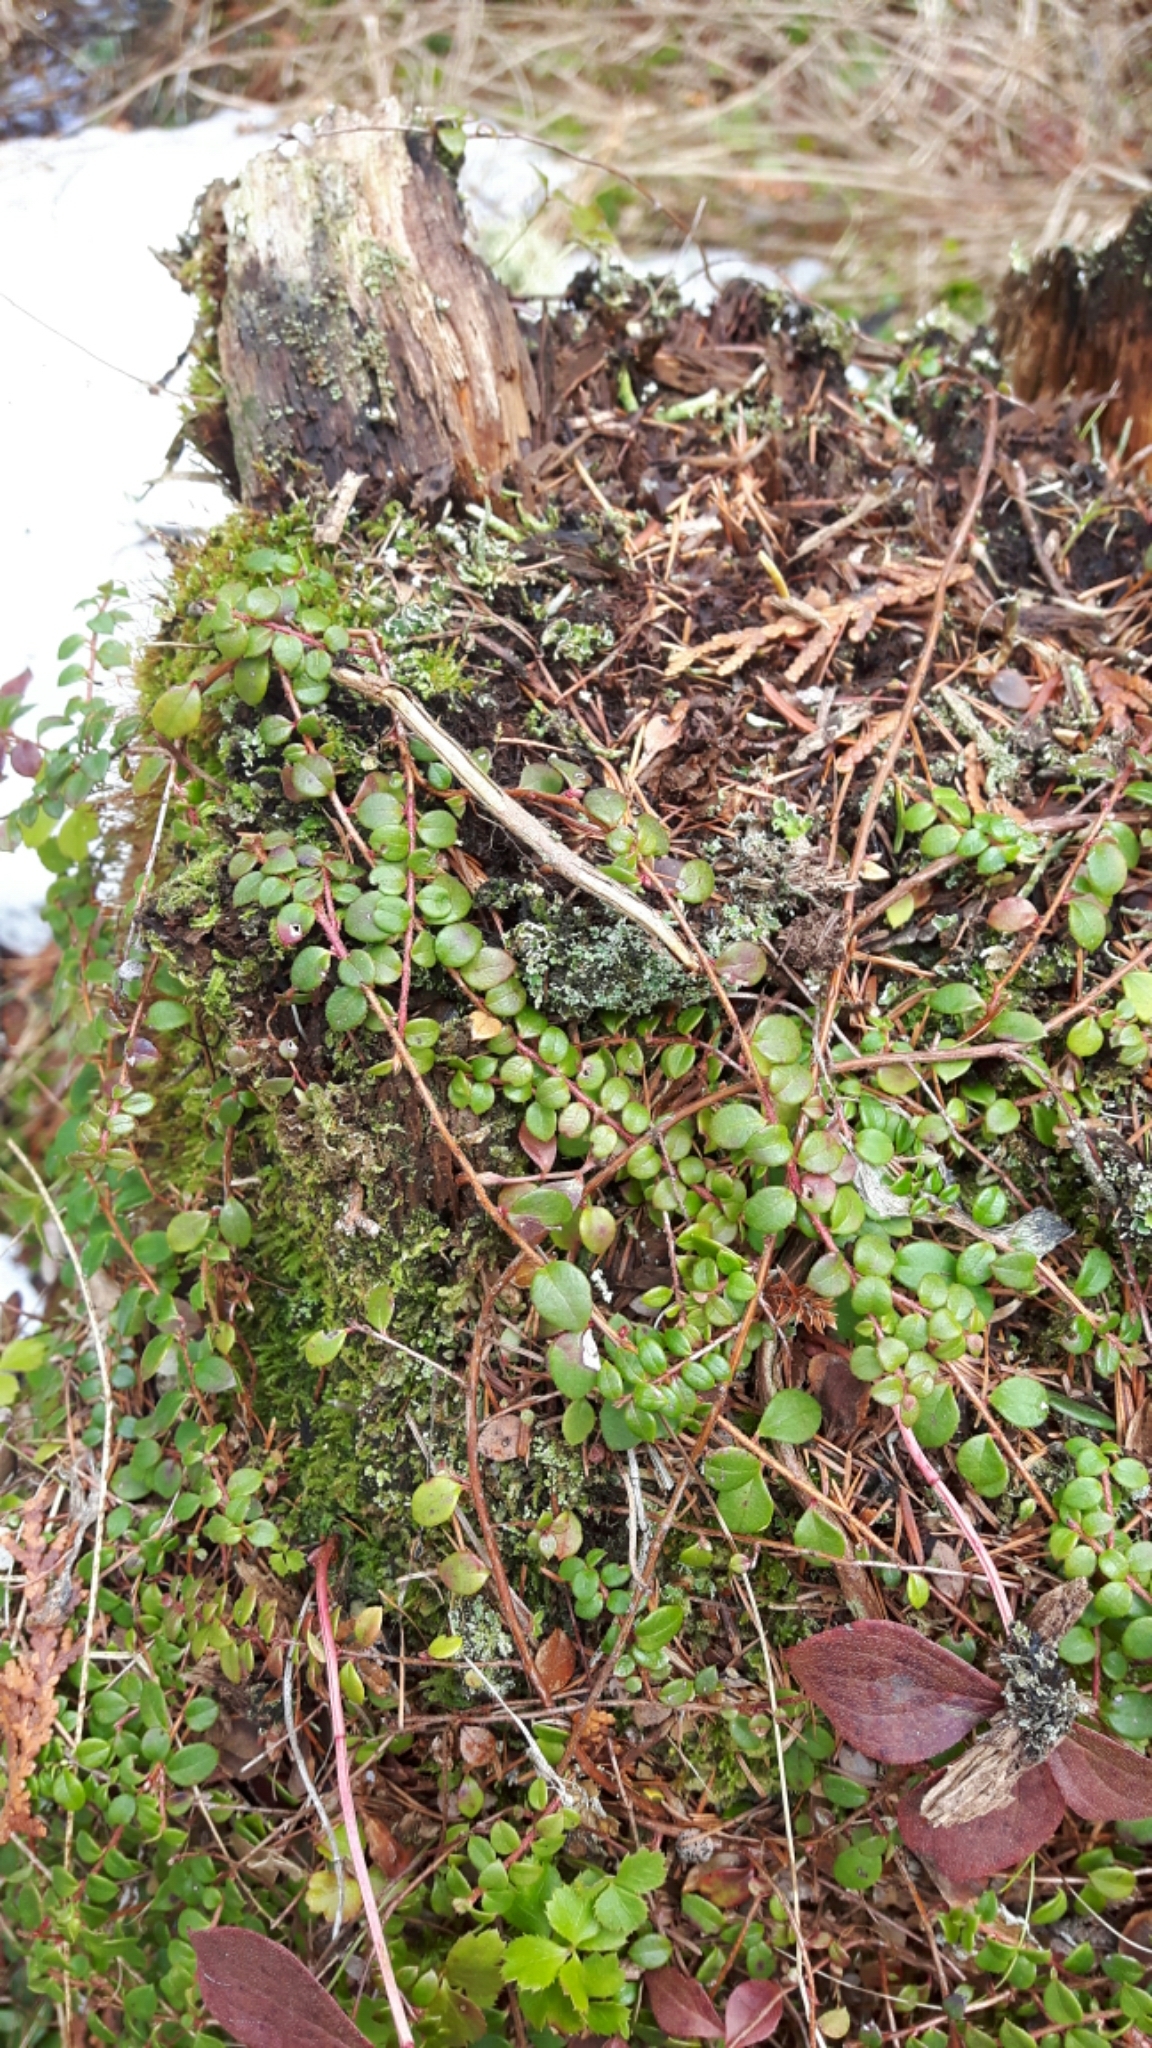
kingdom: Plantae
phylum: Tracheophyta
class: Magnoliopsida
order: Ericales
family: Ericaceae
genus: Gaultheria
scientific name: Gaultheria hispidula
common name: Cancer wintergreen
